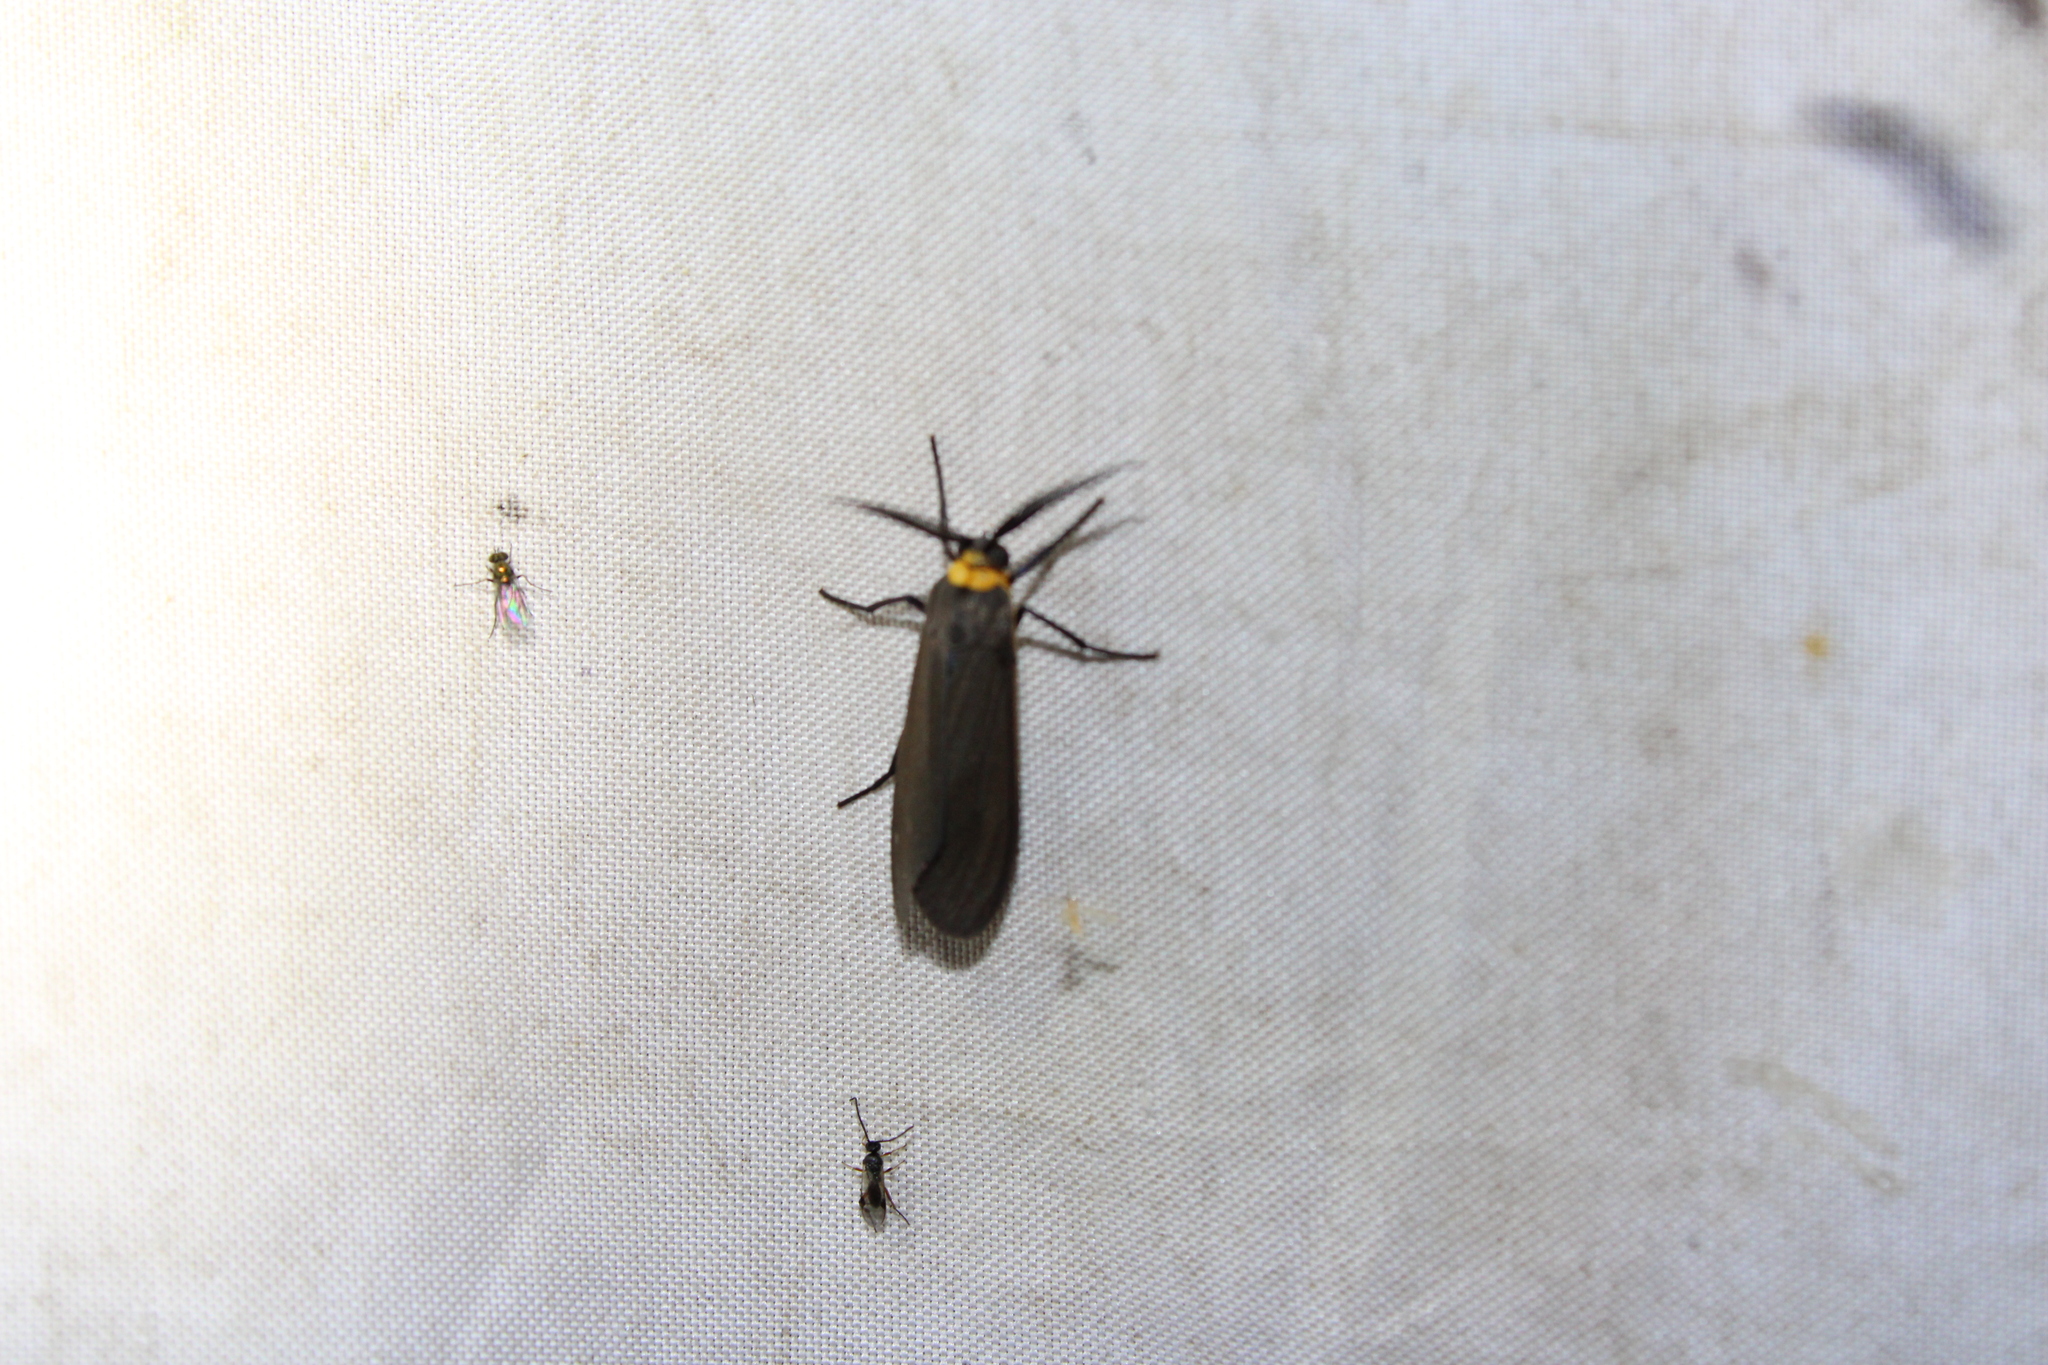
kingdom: Animalia
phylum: Arthropoda
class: Insecta
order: Lepidoptera
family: Erebidae
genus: Cisseps
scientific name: Cisseps fulvicollis
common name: Yellow-collared scape moth
